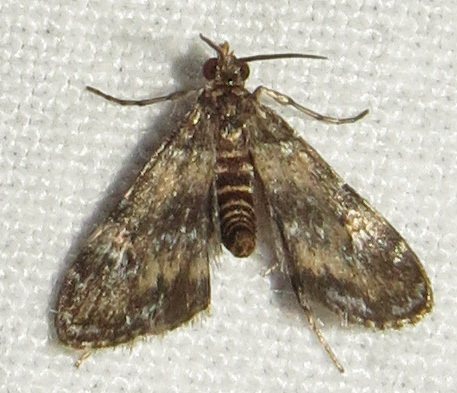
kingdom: Animalia
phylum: Arthropoda
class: Insecta
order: Lepidoptera
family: Crambidae
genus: Elophila
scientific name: Elophila obliteralis
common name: Waterlily leafcutter moth
